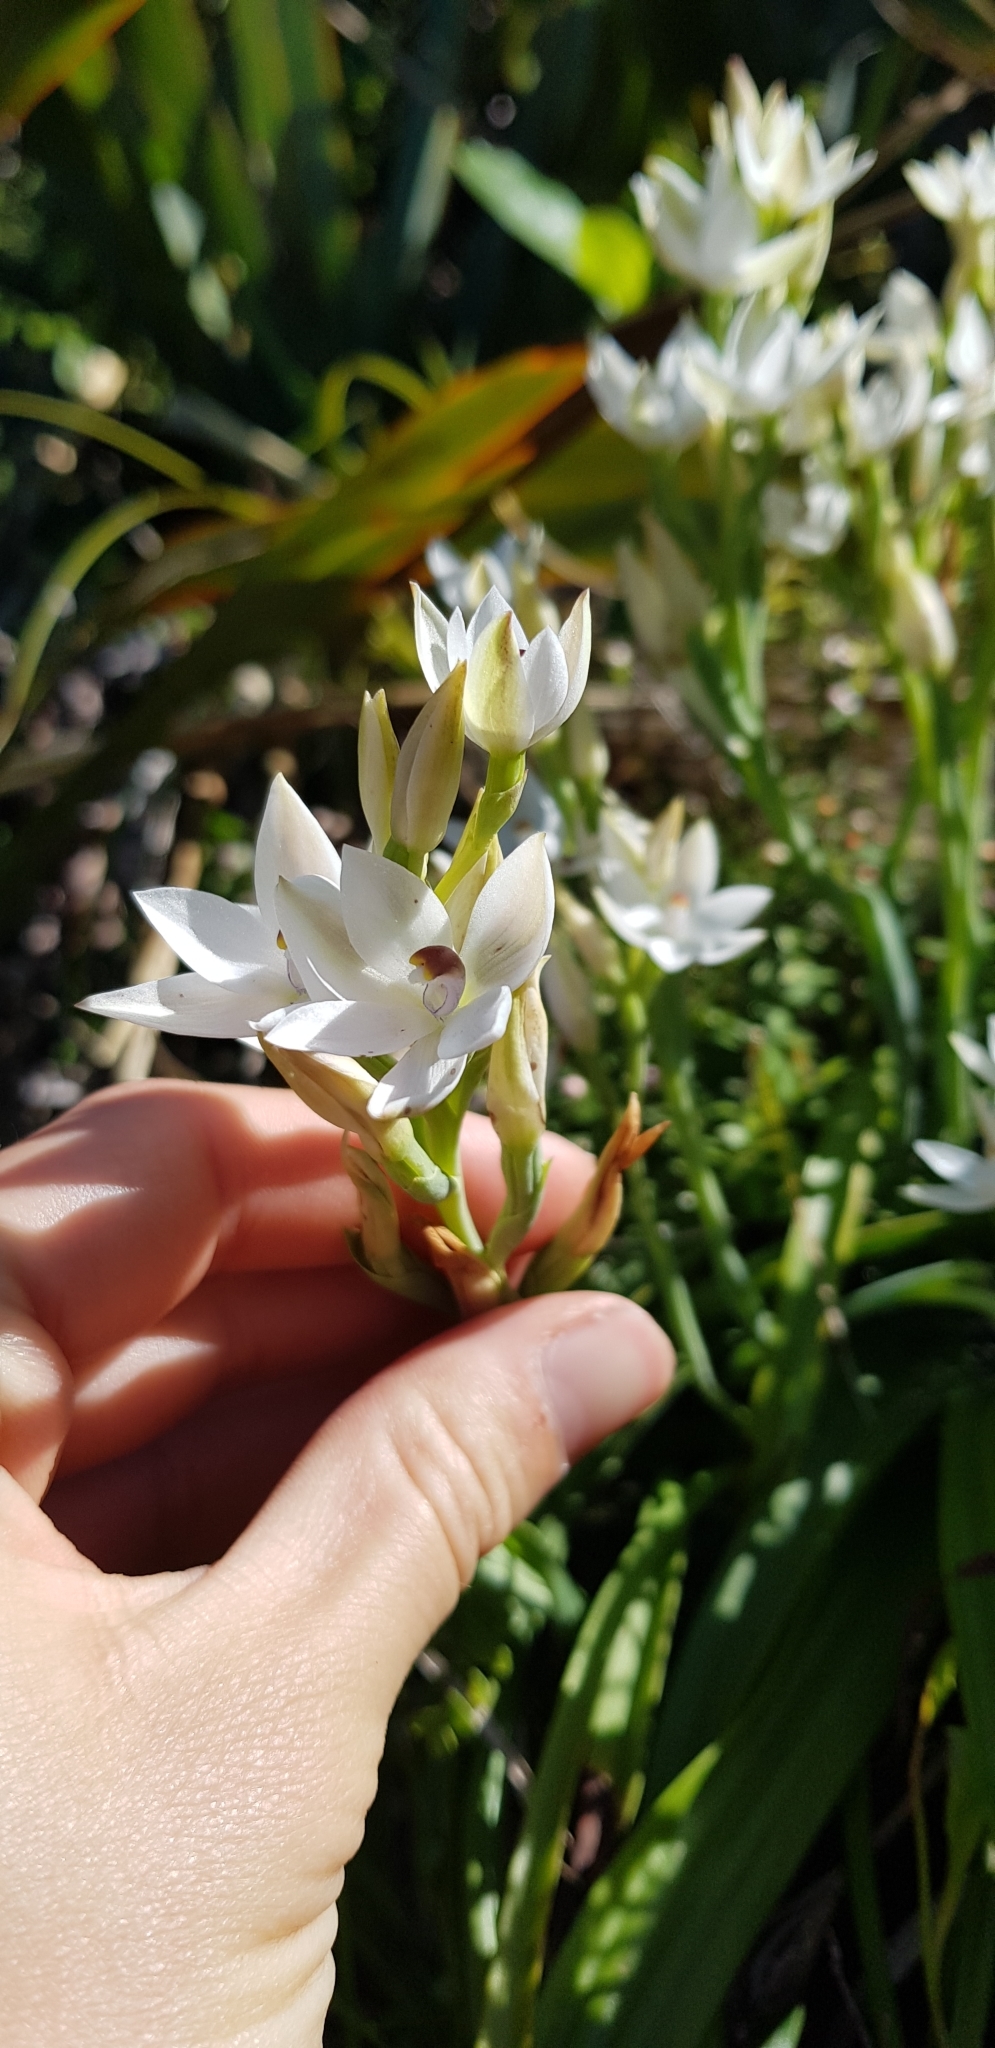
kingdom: Plantae
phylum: Tracheophyta
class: Liliopsida
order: Asparagales
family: Orchidaceae
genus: Thelymitra
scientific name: Thelymitra longifolia
